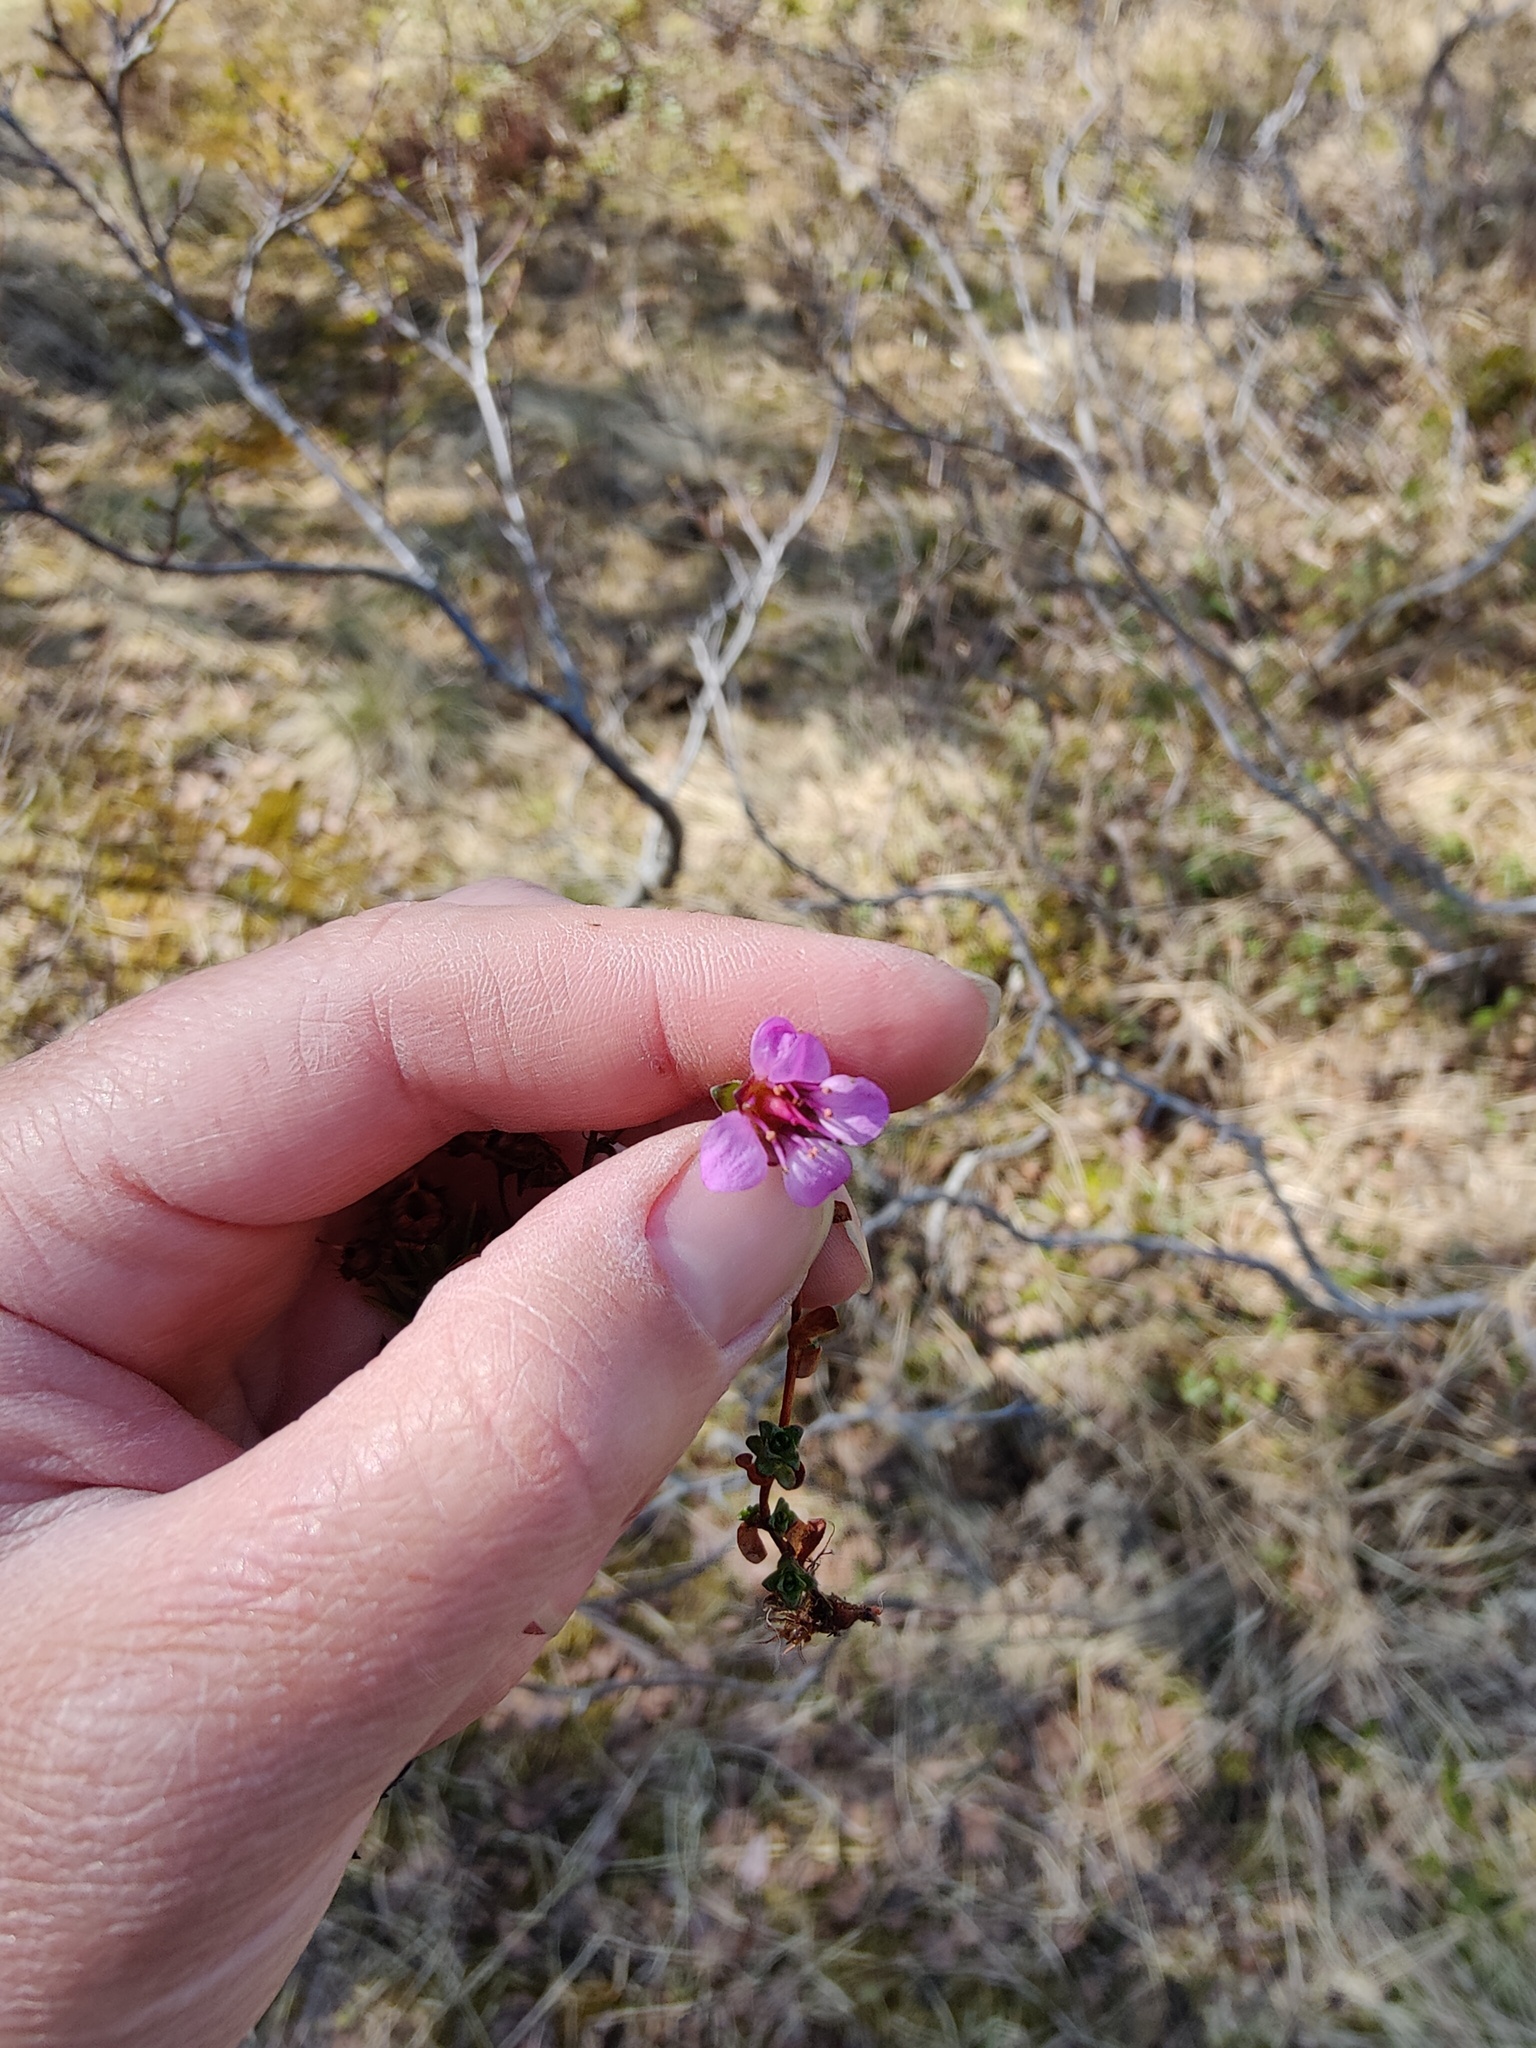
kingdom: Plantae
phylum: Tracheophyta
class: Magnoliopsida
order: Saxifragales
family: Saxifragaceae
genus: Saxifraga
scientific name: Saxifraga oppositifolia
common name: Purple saxifrage
